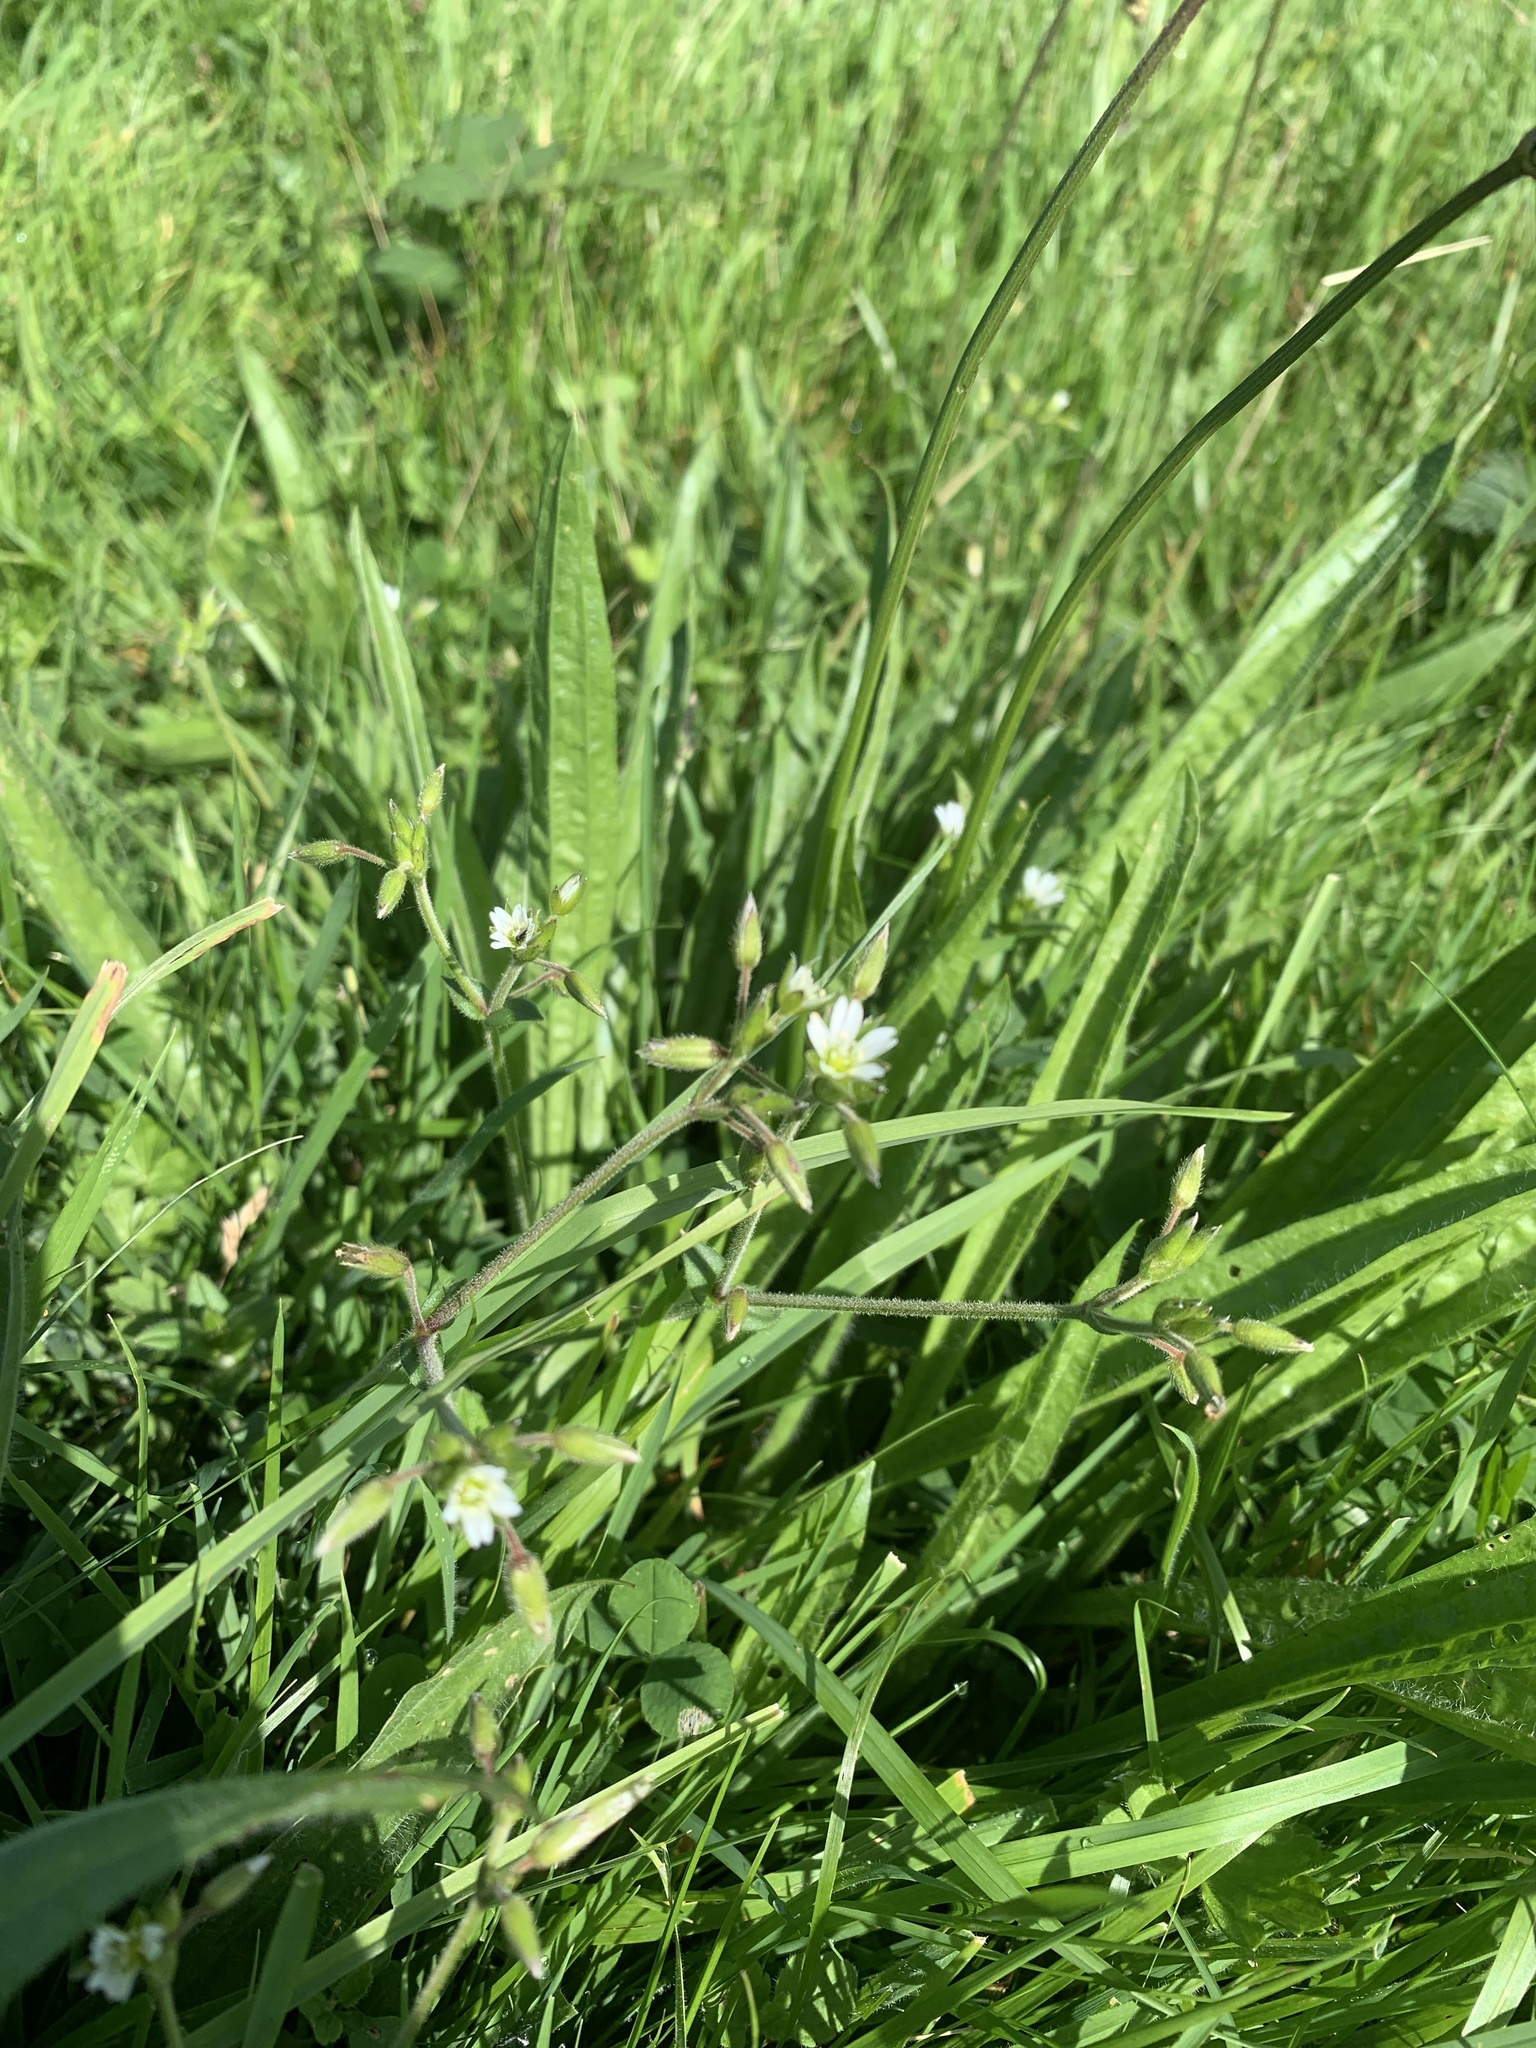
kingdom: Plantae
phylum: Tracheophyta
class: Magnoliopsida
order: Caryophyllales
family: Caryophyllaceae
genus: Cerastium
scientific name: Cerastium fontanum
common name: Common mouse-ear
